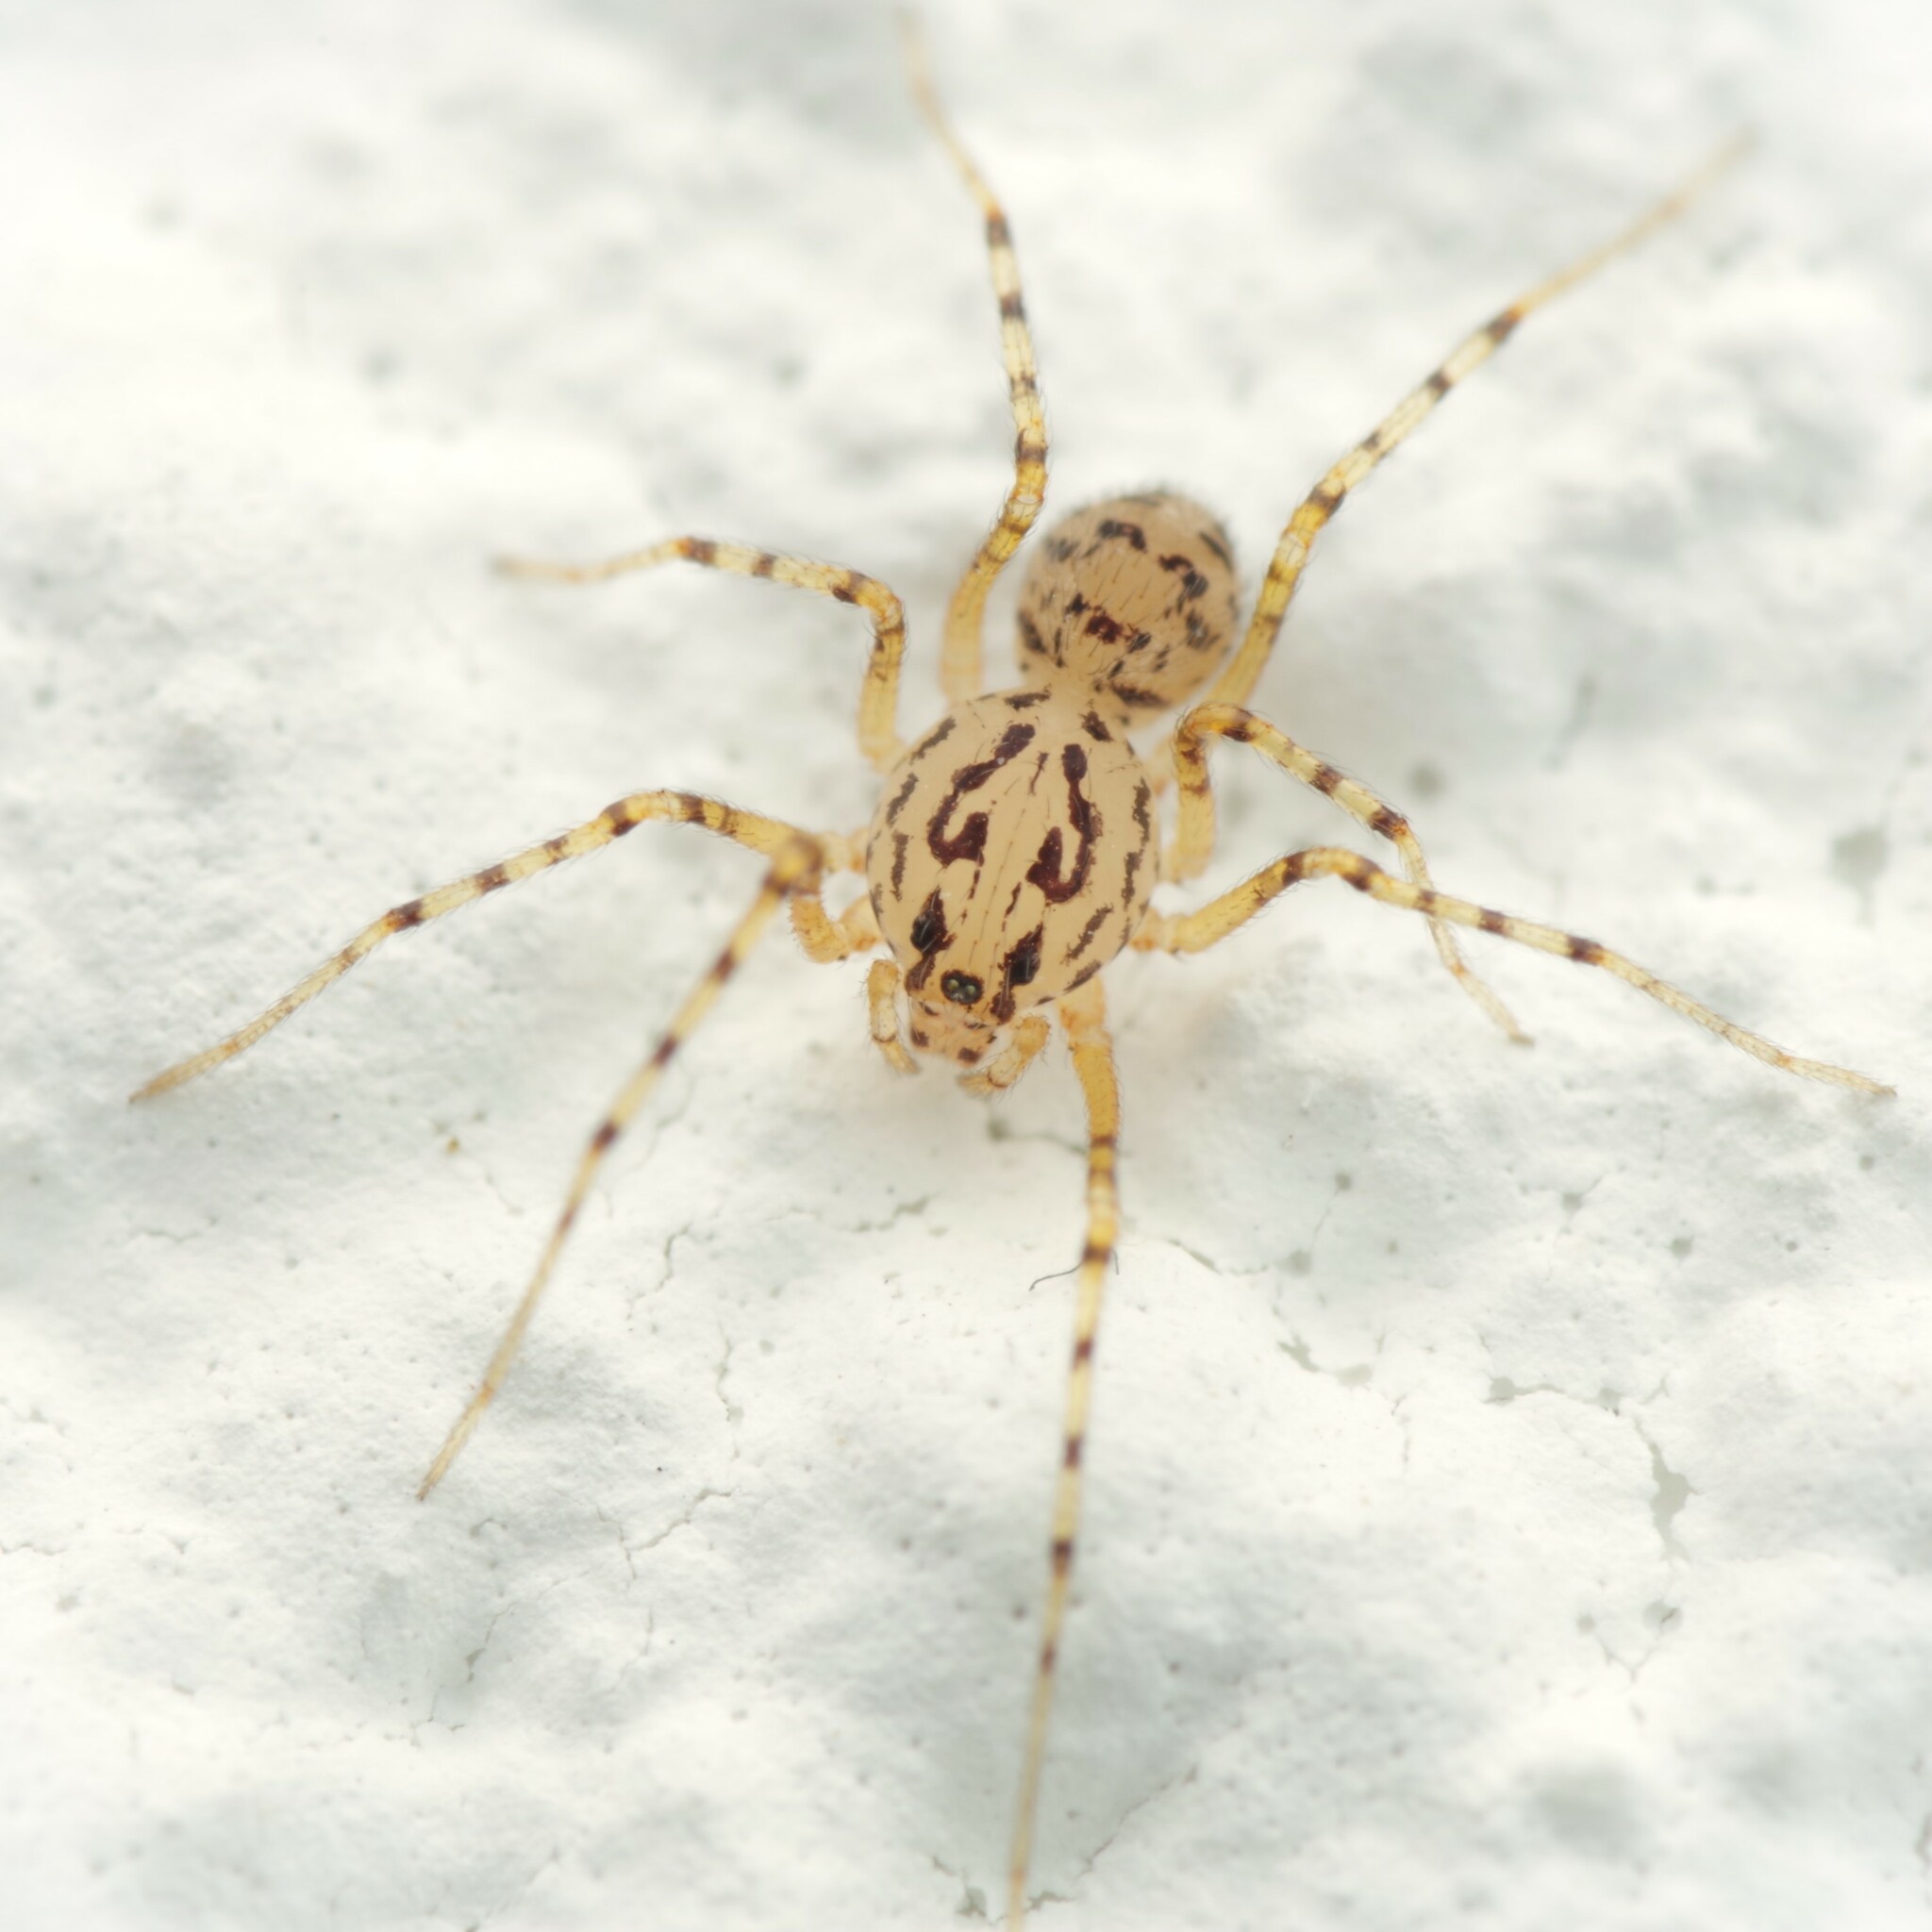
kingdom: Animalia
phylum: Arthropoda
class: Arachnida
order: Araneae
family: Scytodidae
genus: Scytodes
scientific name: Scytodes thoracica
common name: Spitting spider
